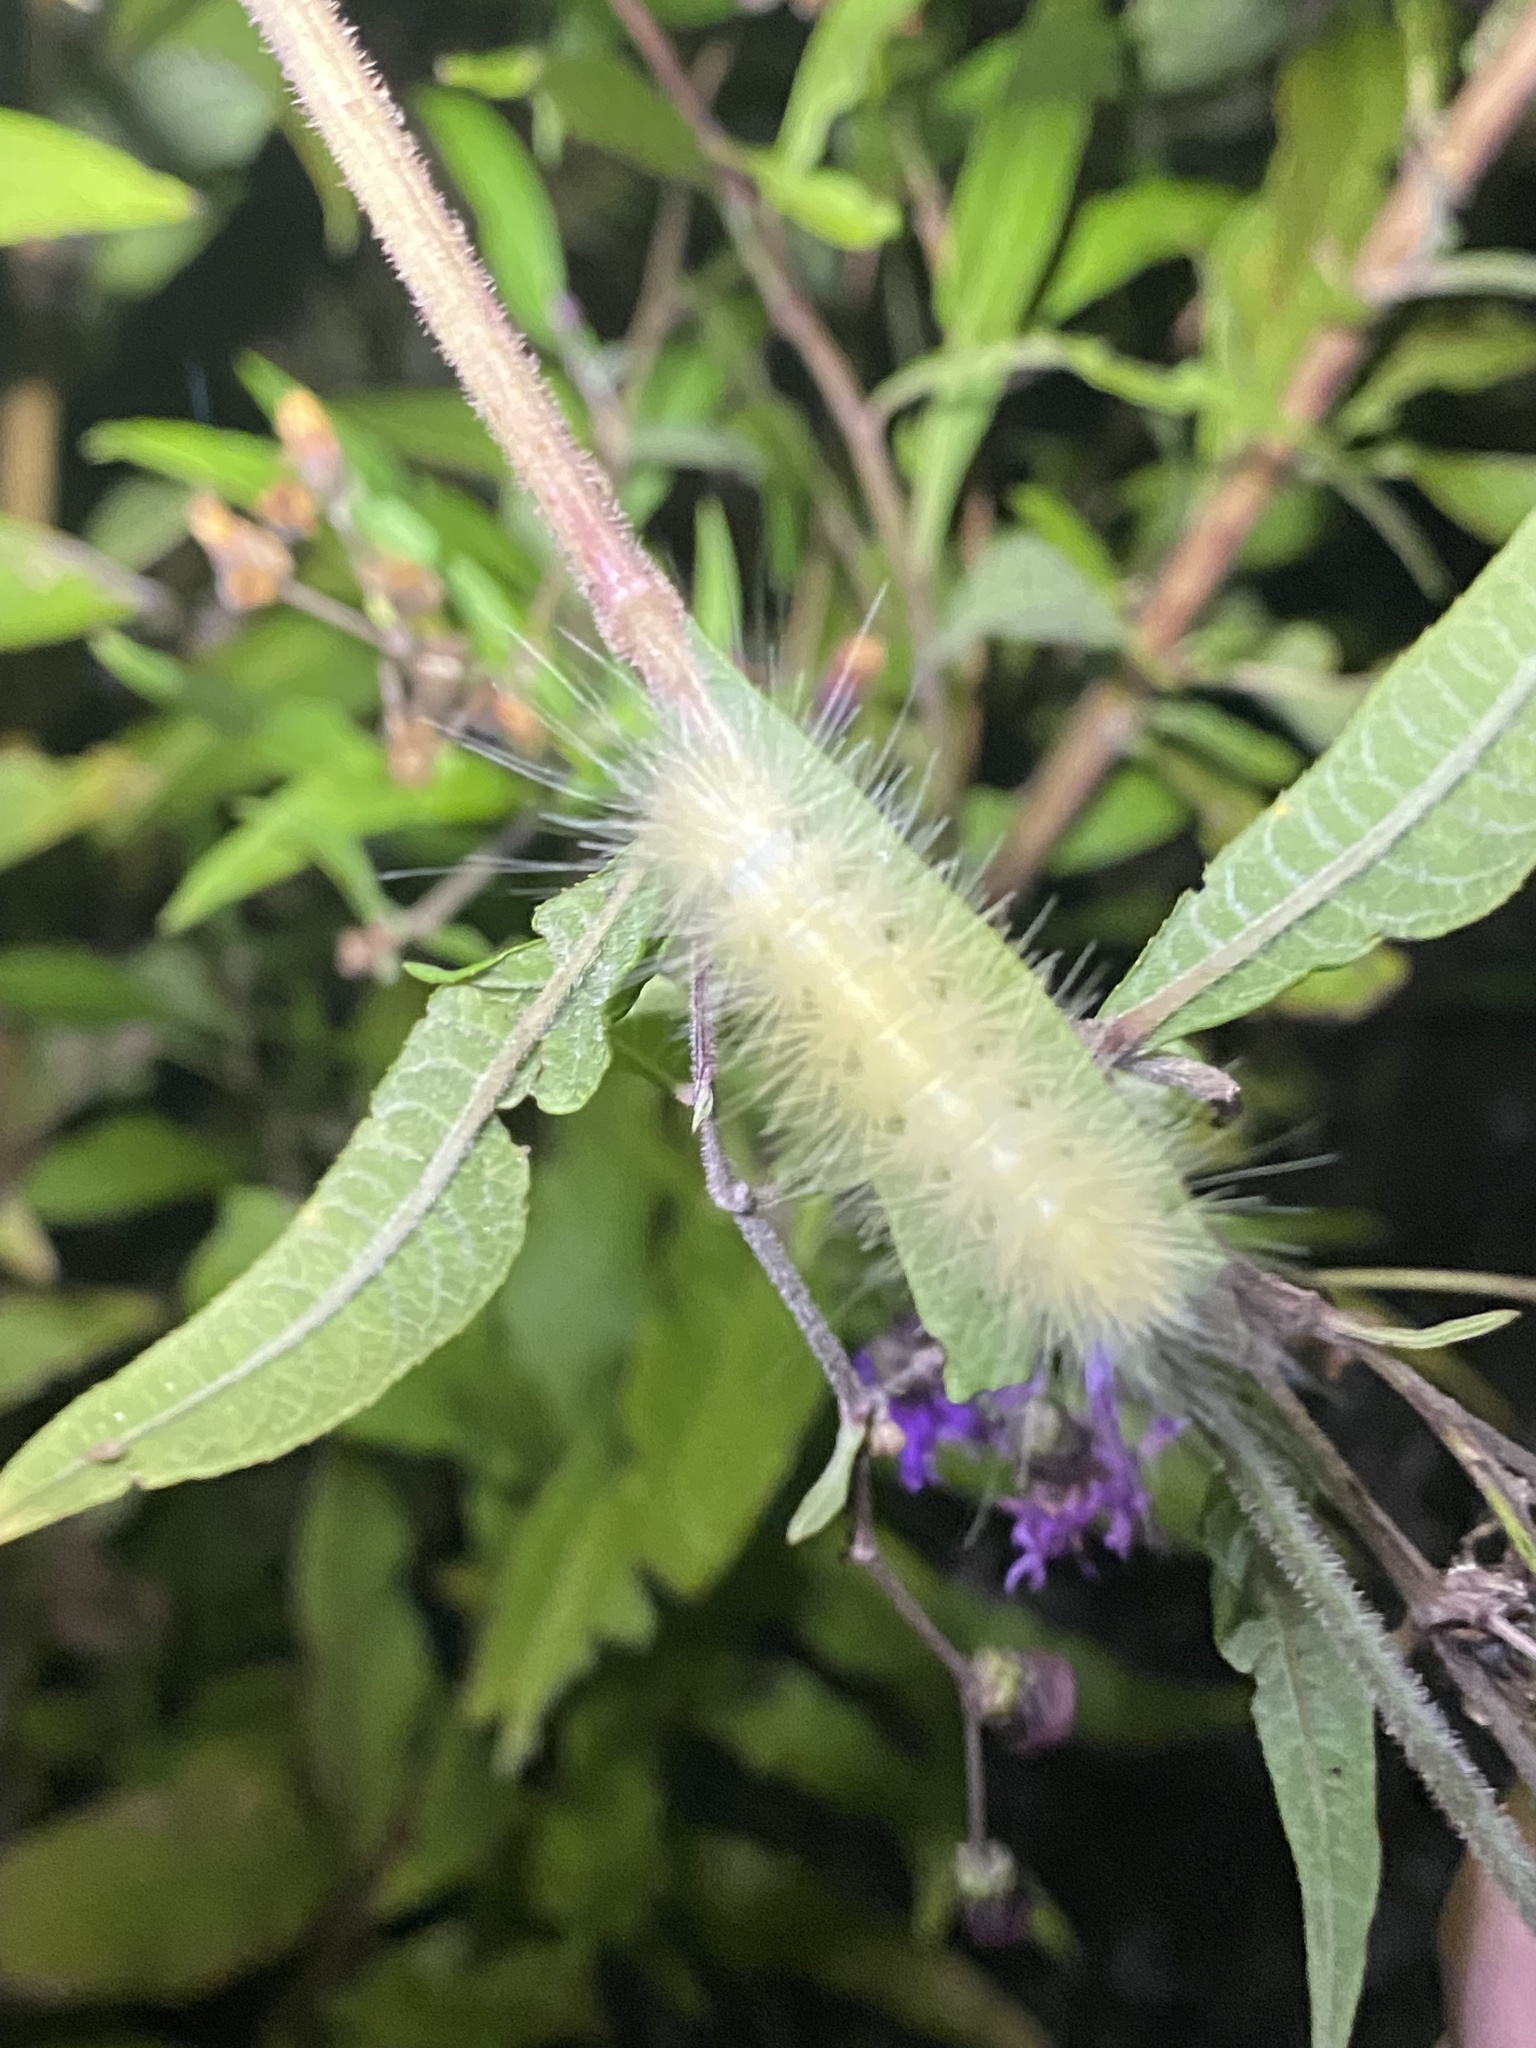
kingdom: Animalia
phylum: Arthropoda
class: Insecta
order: Lepidoptera
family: Erebidae
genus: Spilosoma
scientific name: Spilosoma virginica
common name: Virginia tiger moth
